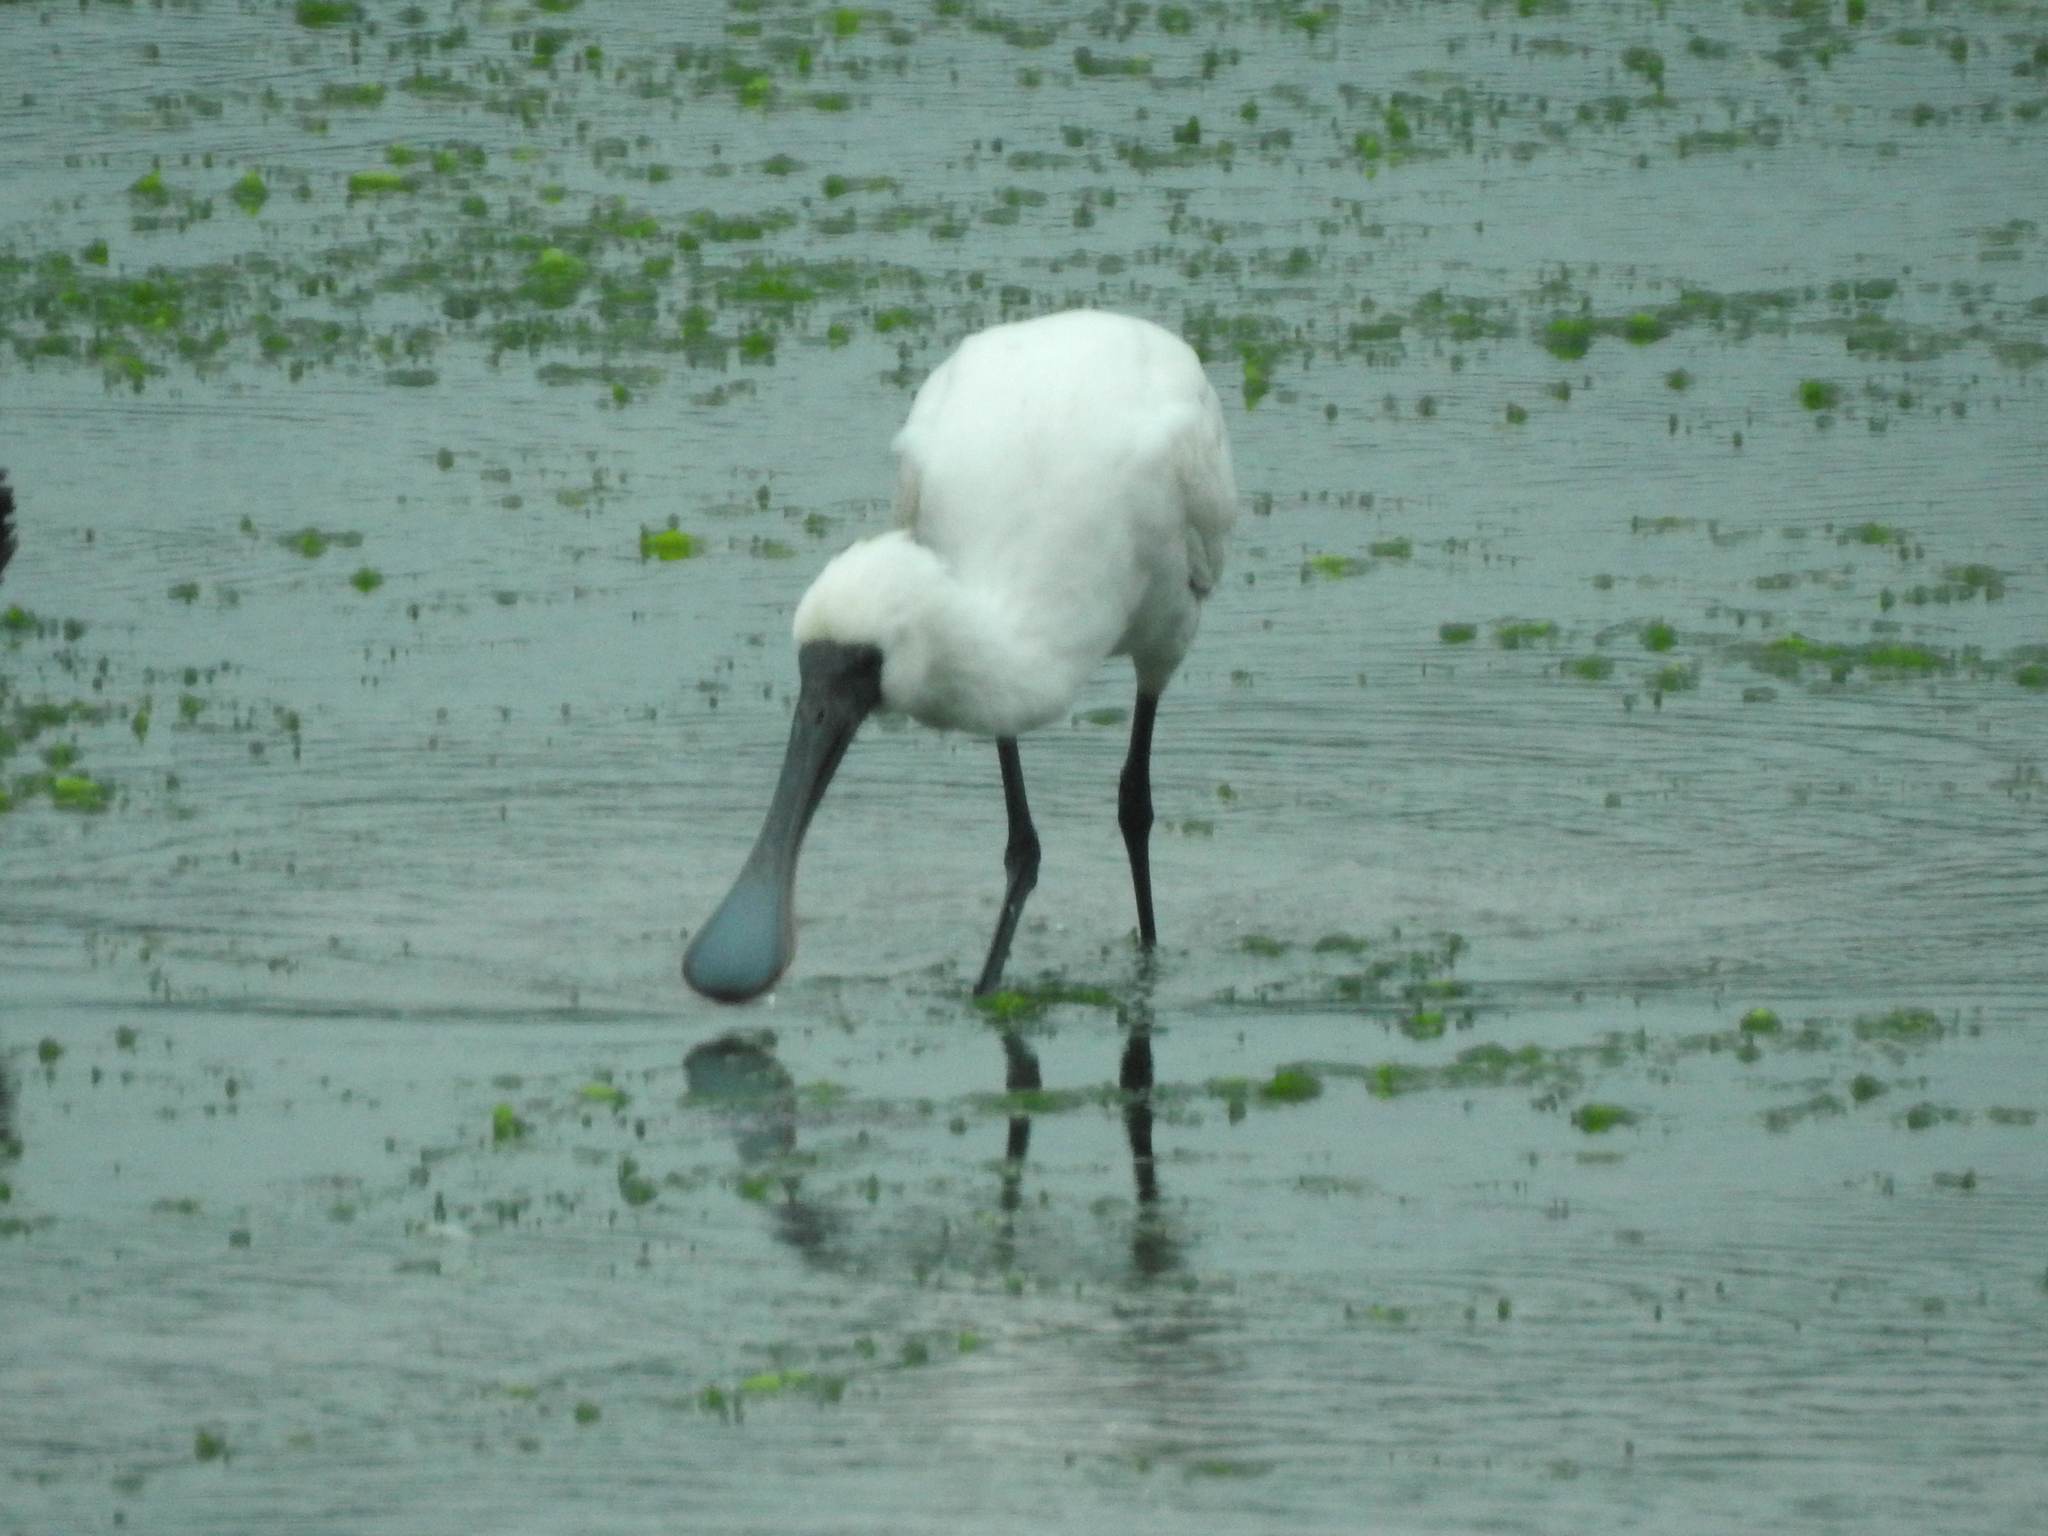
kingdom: Animalia
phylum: Chordata
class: Aves
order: Pelecaniformes
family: Threskiornithidae
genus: Platalea
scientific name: Platalea regia
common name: Royal spoonbill
